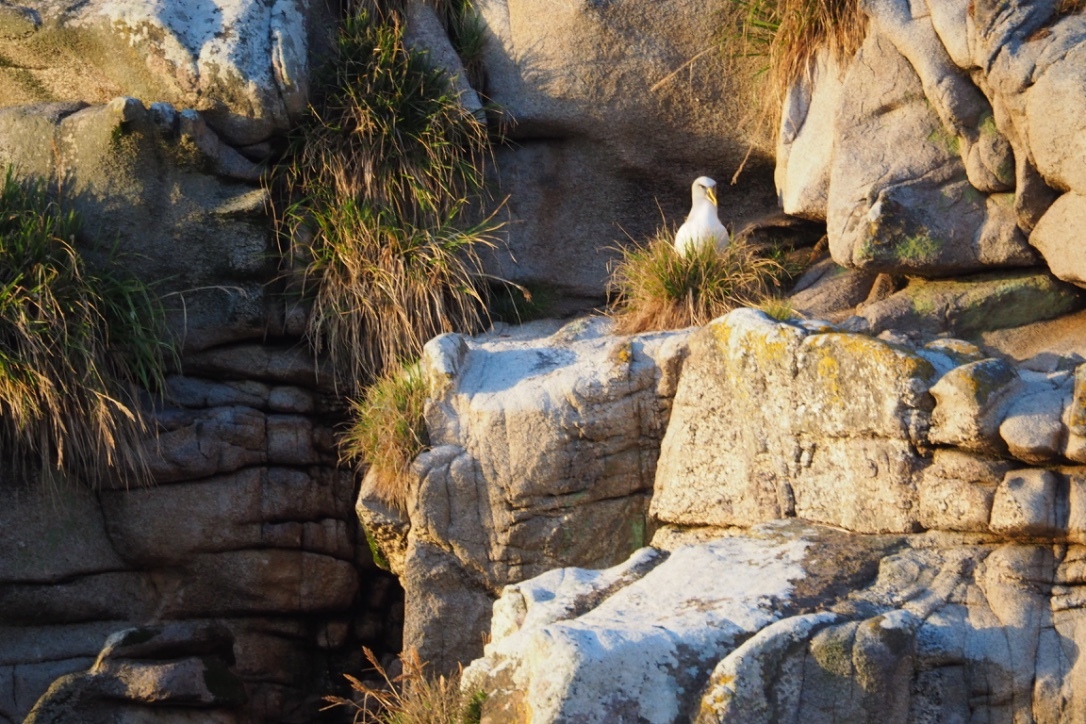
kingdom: Animalia
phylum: Chordata
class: Aves
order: Procellariiformes
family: Diomedeidae
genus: Thalassarche
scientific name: Thalassarche bulleri
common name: Buller's albatross
